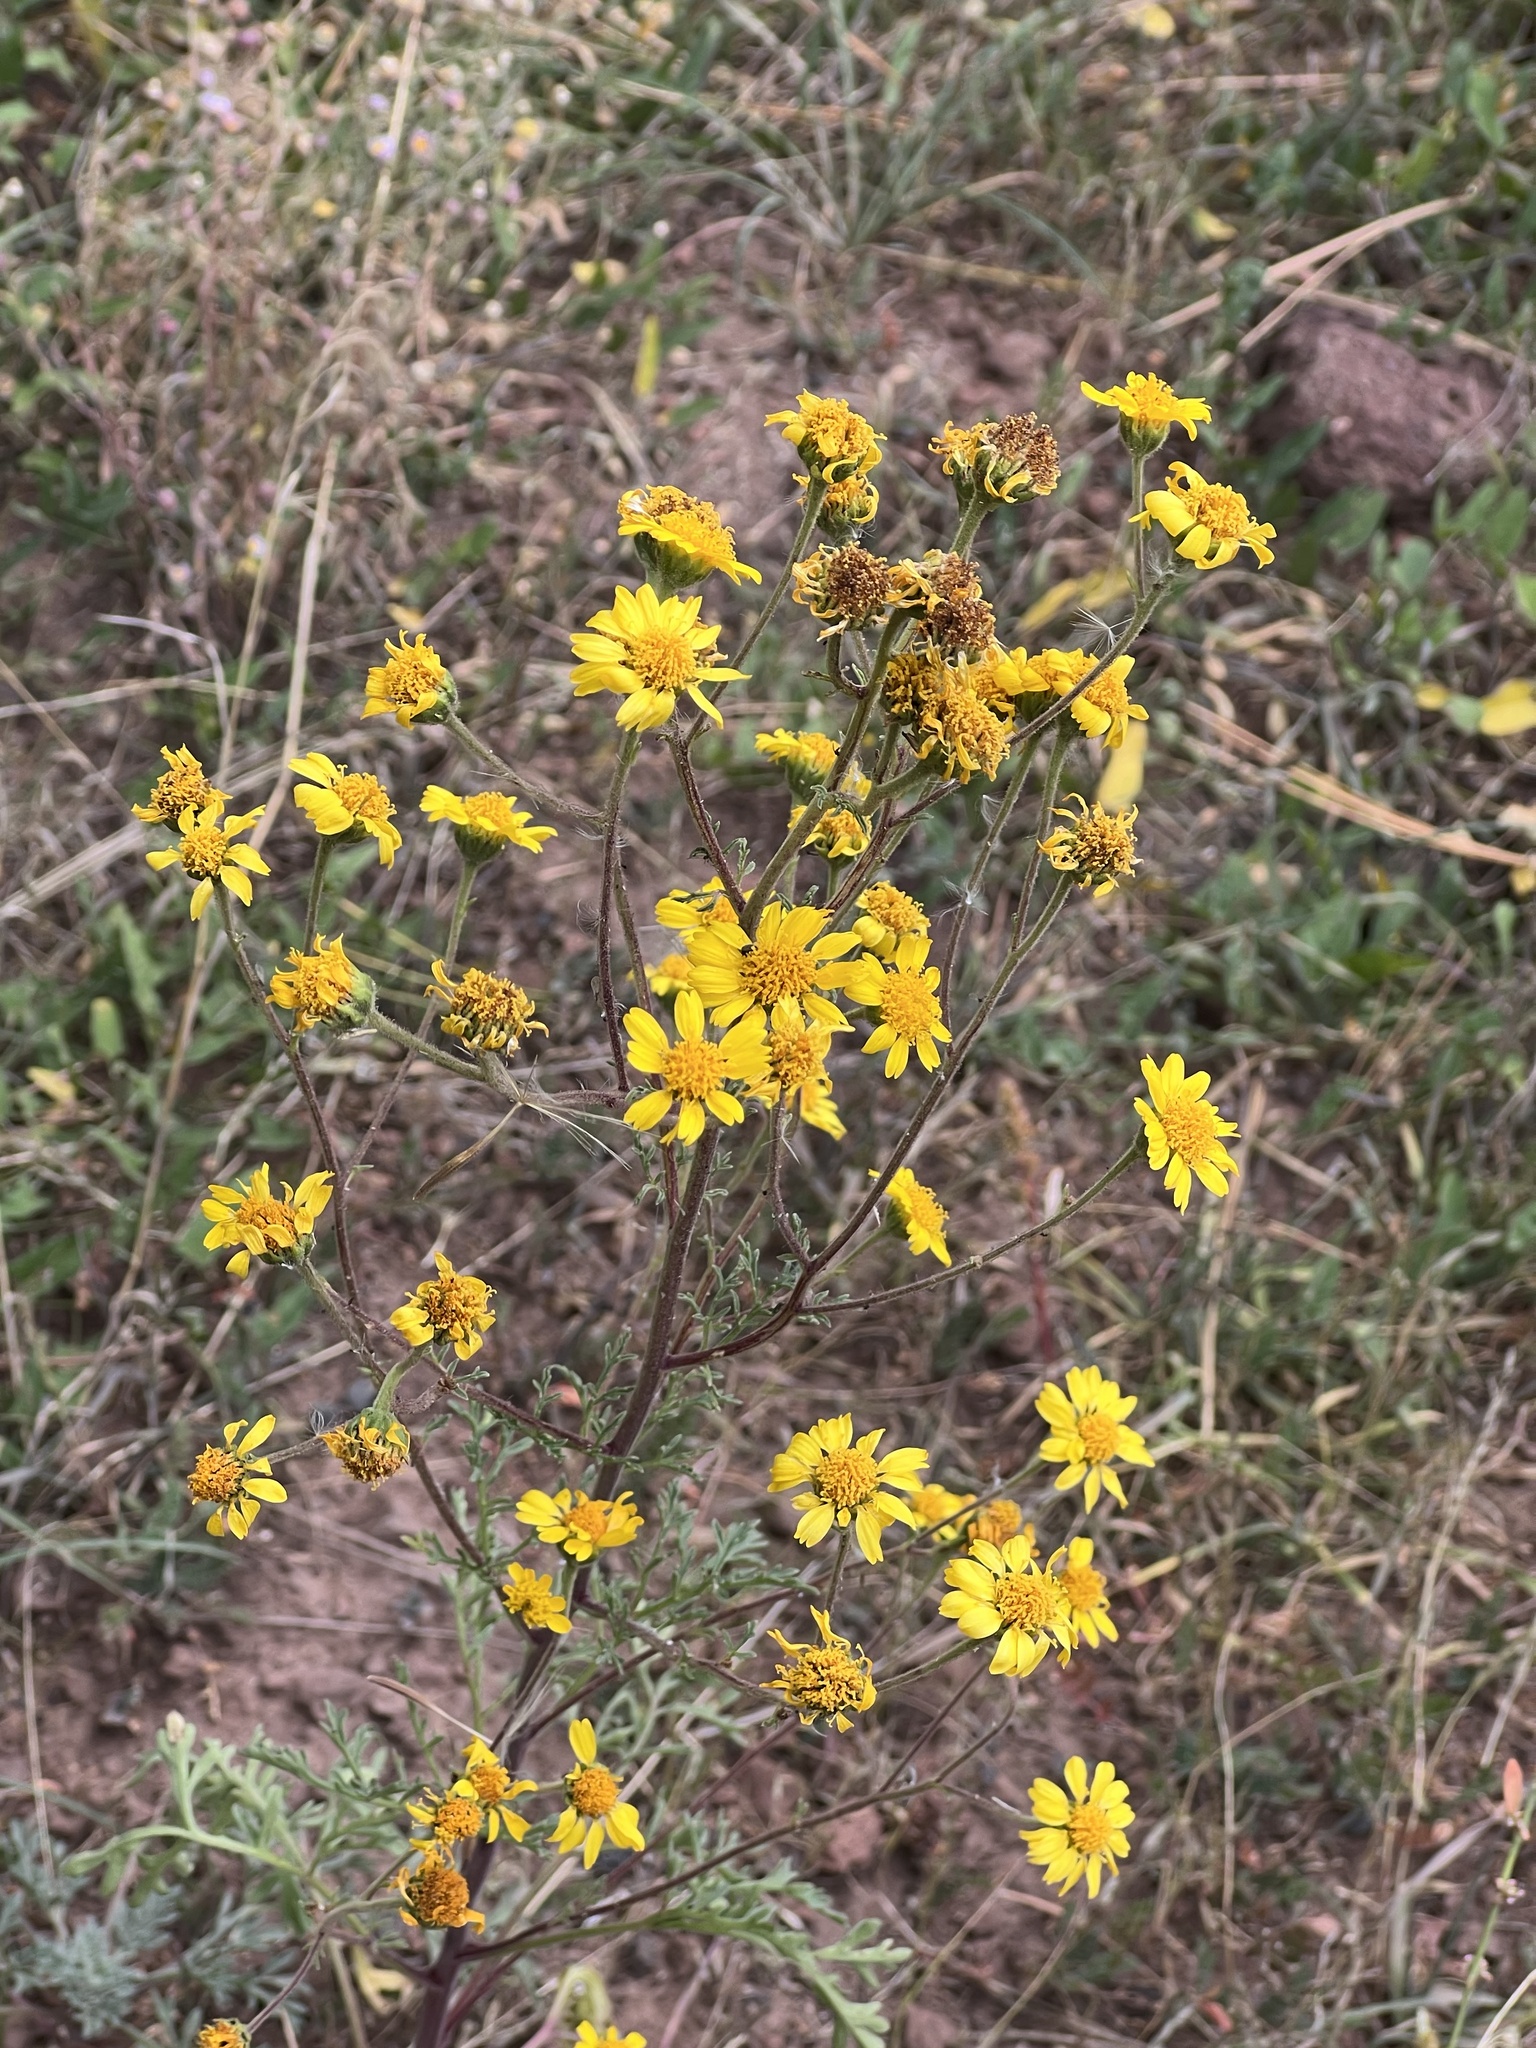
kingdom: Plantae
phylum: Tracheophyta
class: Magnoliopsida
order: Asterales
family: Asteraceae
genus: Hymenothrix
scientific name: Hymenothrix dissecta
